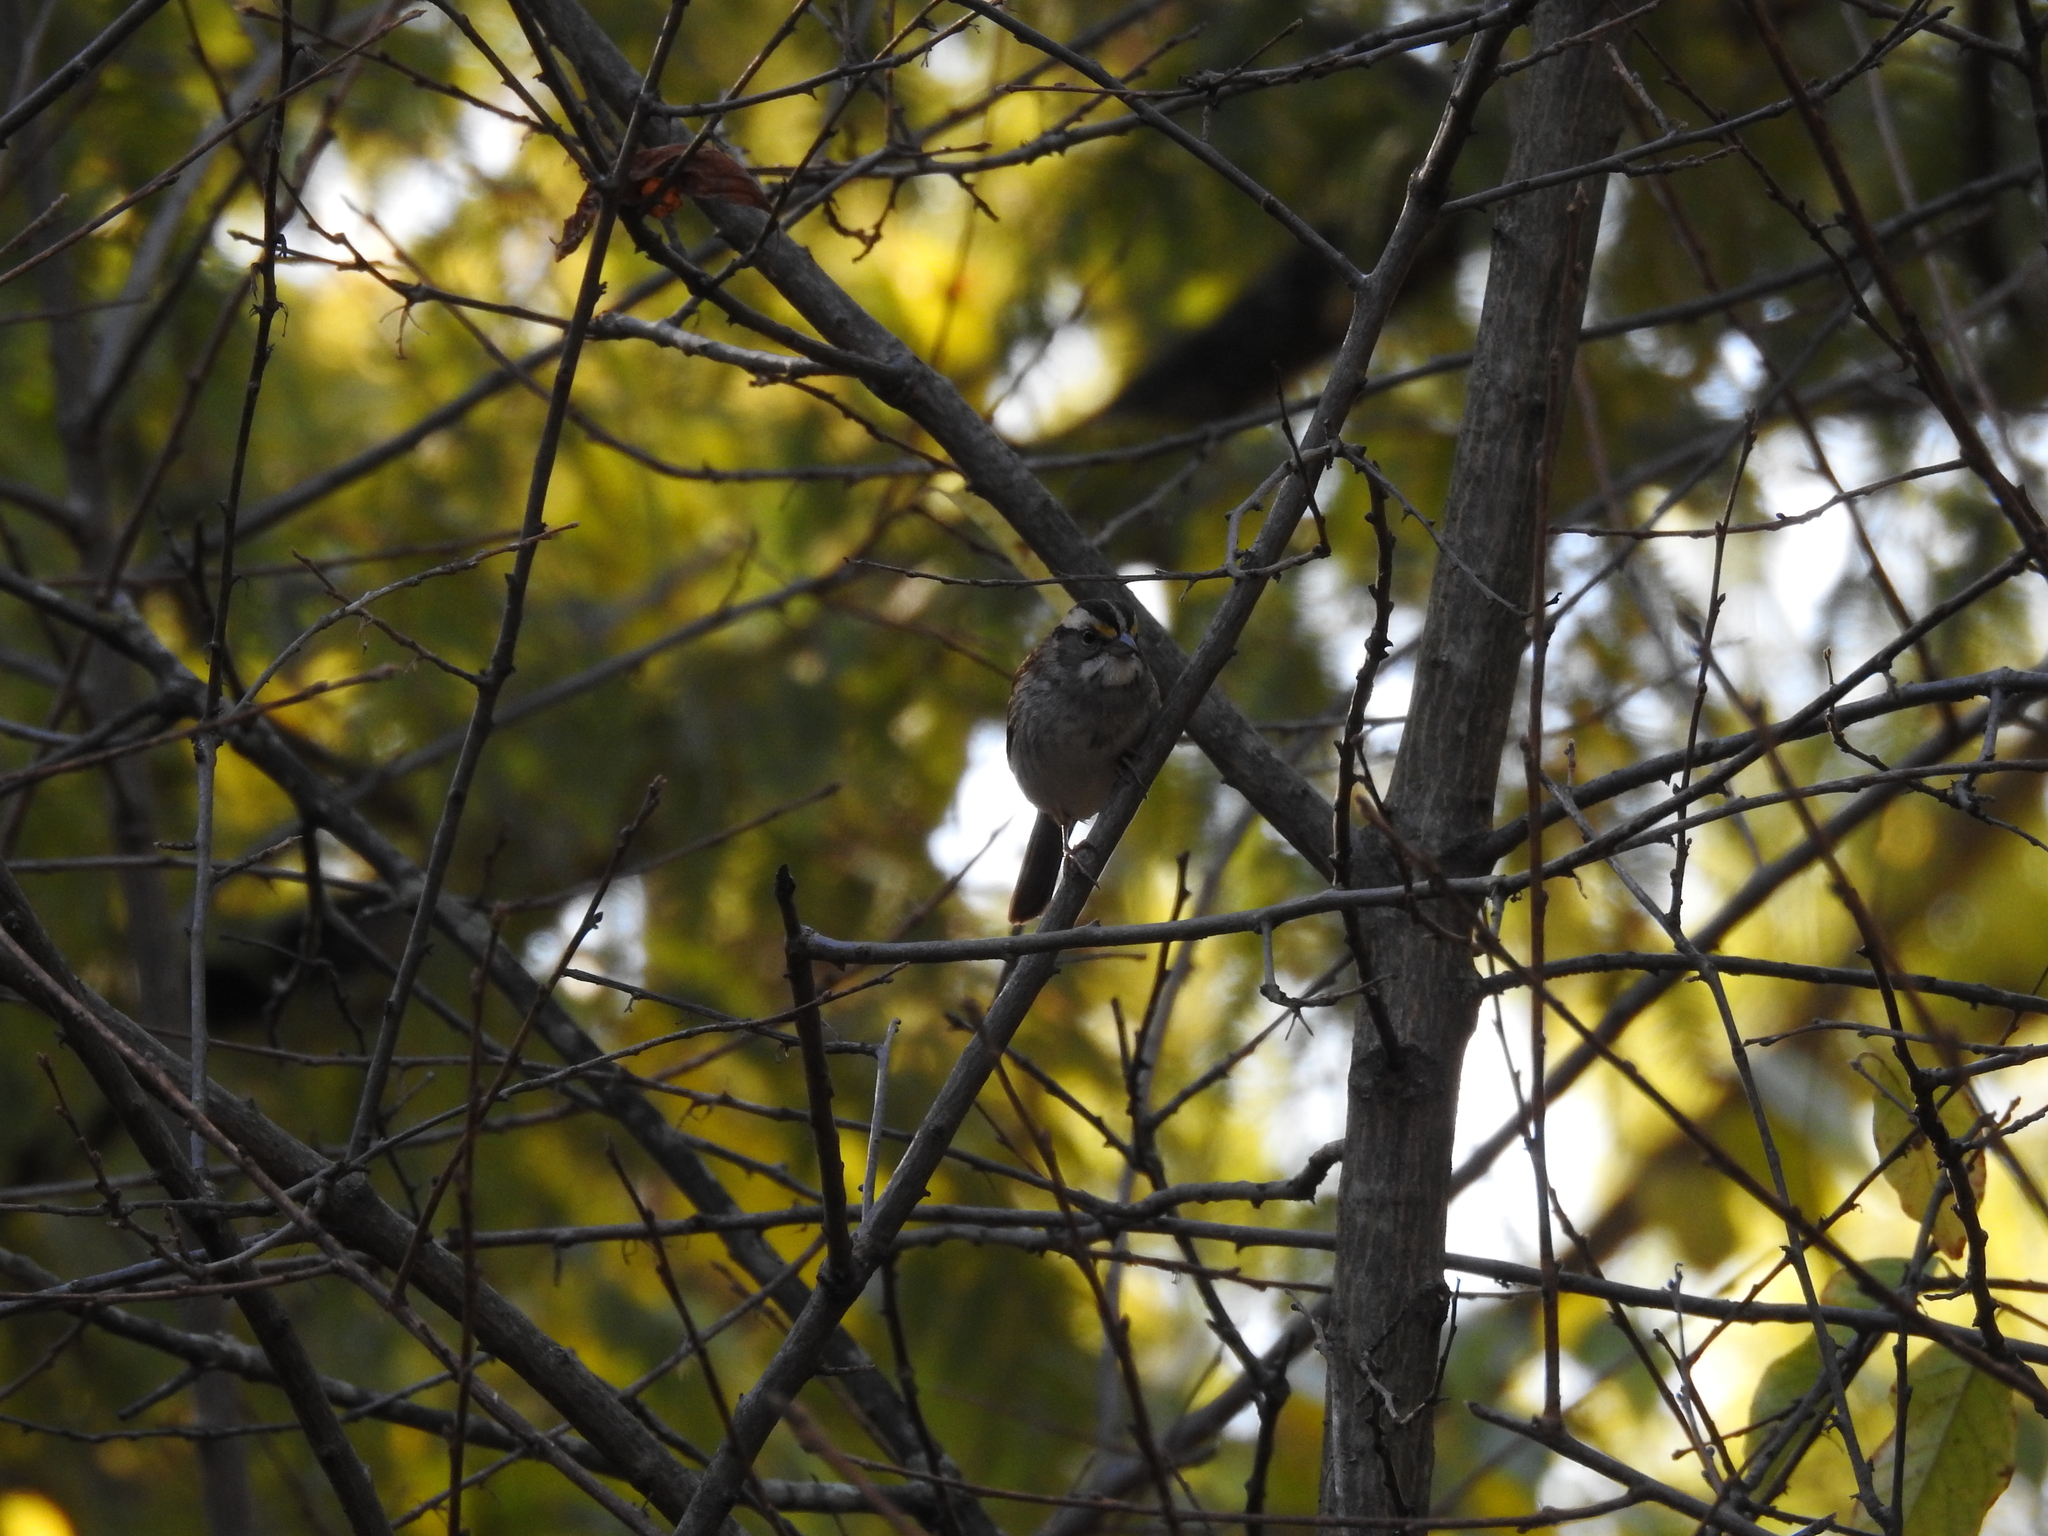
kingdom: Animalia
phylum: Chordata
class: Aves
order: Passeriformes
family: Passerellidae
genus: Zonotrichia
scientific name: Zonotrichia albicollis
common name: White-throated sparrow
